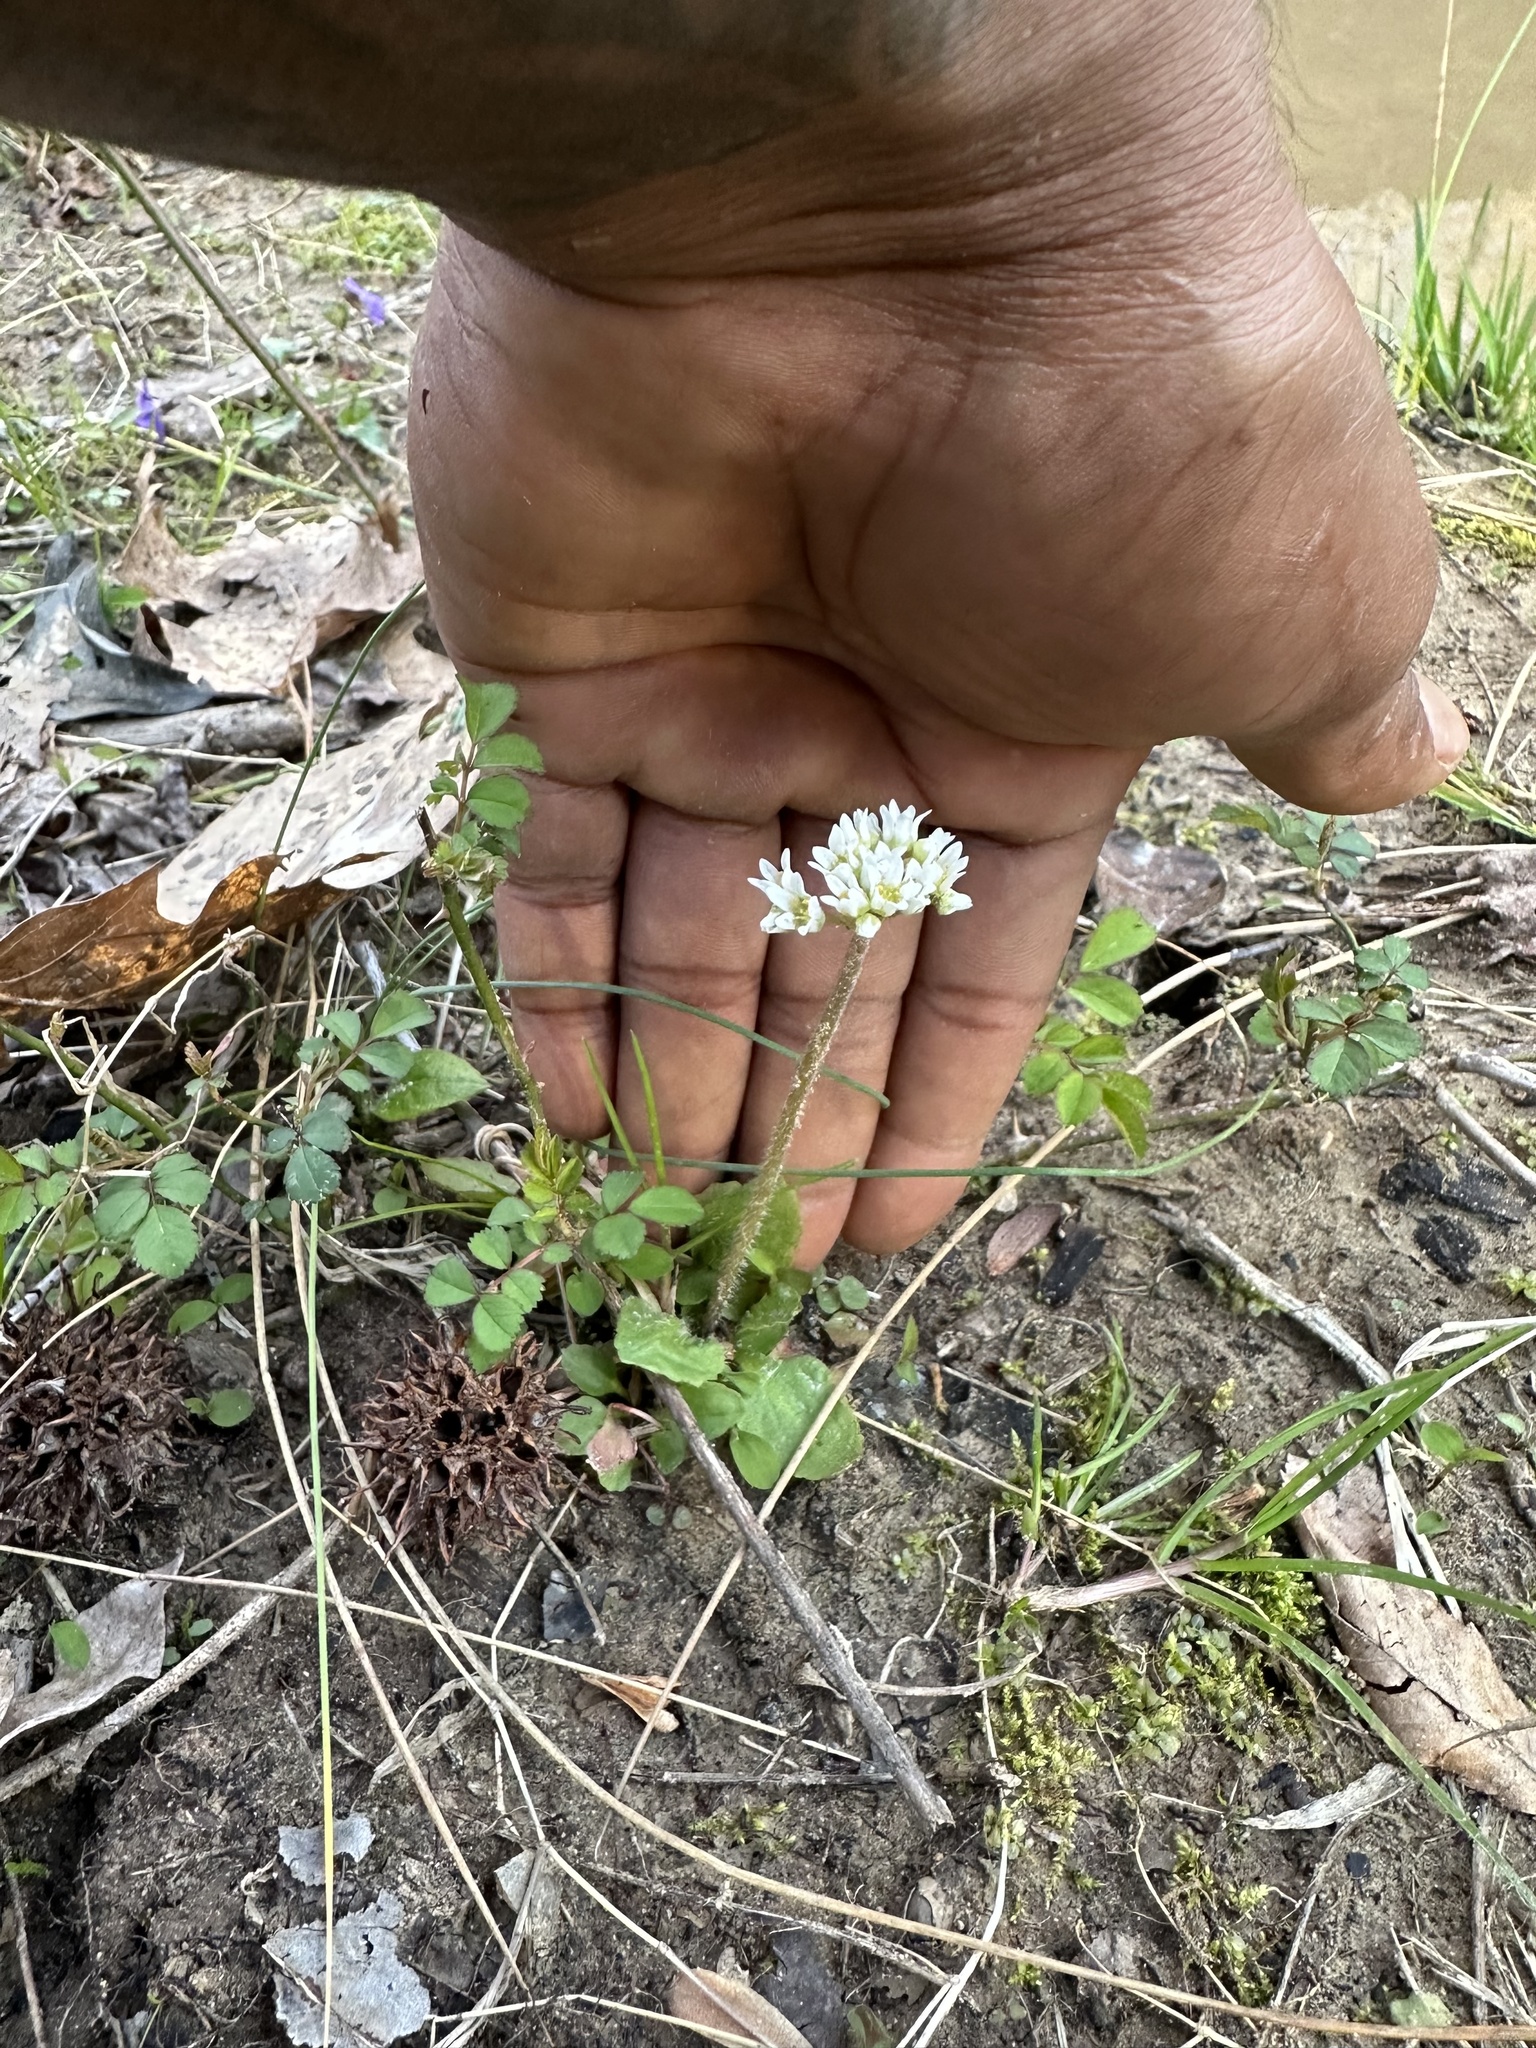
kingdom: Plantae
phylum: Tracheophyta
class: Magnoliopsida
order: Saxifragales
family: Saxifragaceae
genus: Micranthes
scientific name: Micranthes virginiensis
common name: Early saxifrage
